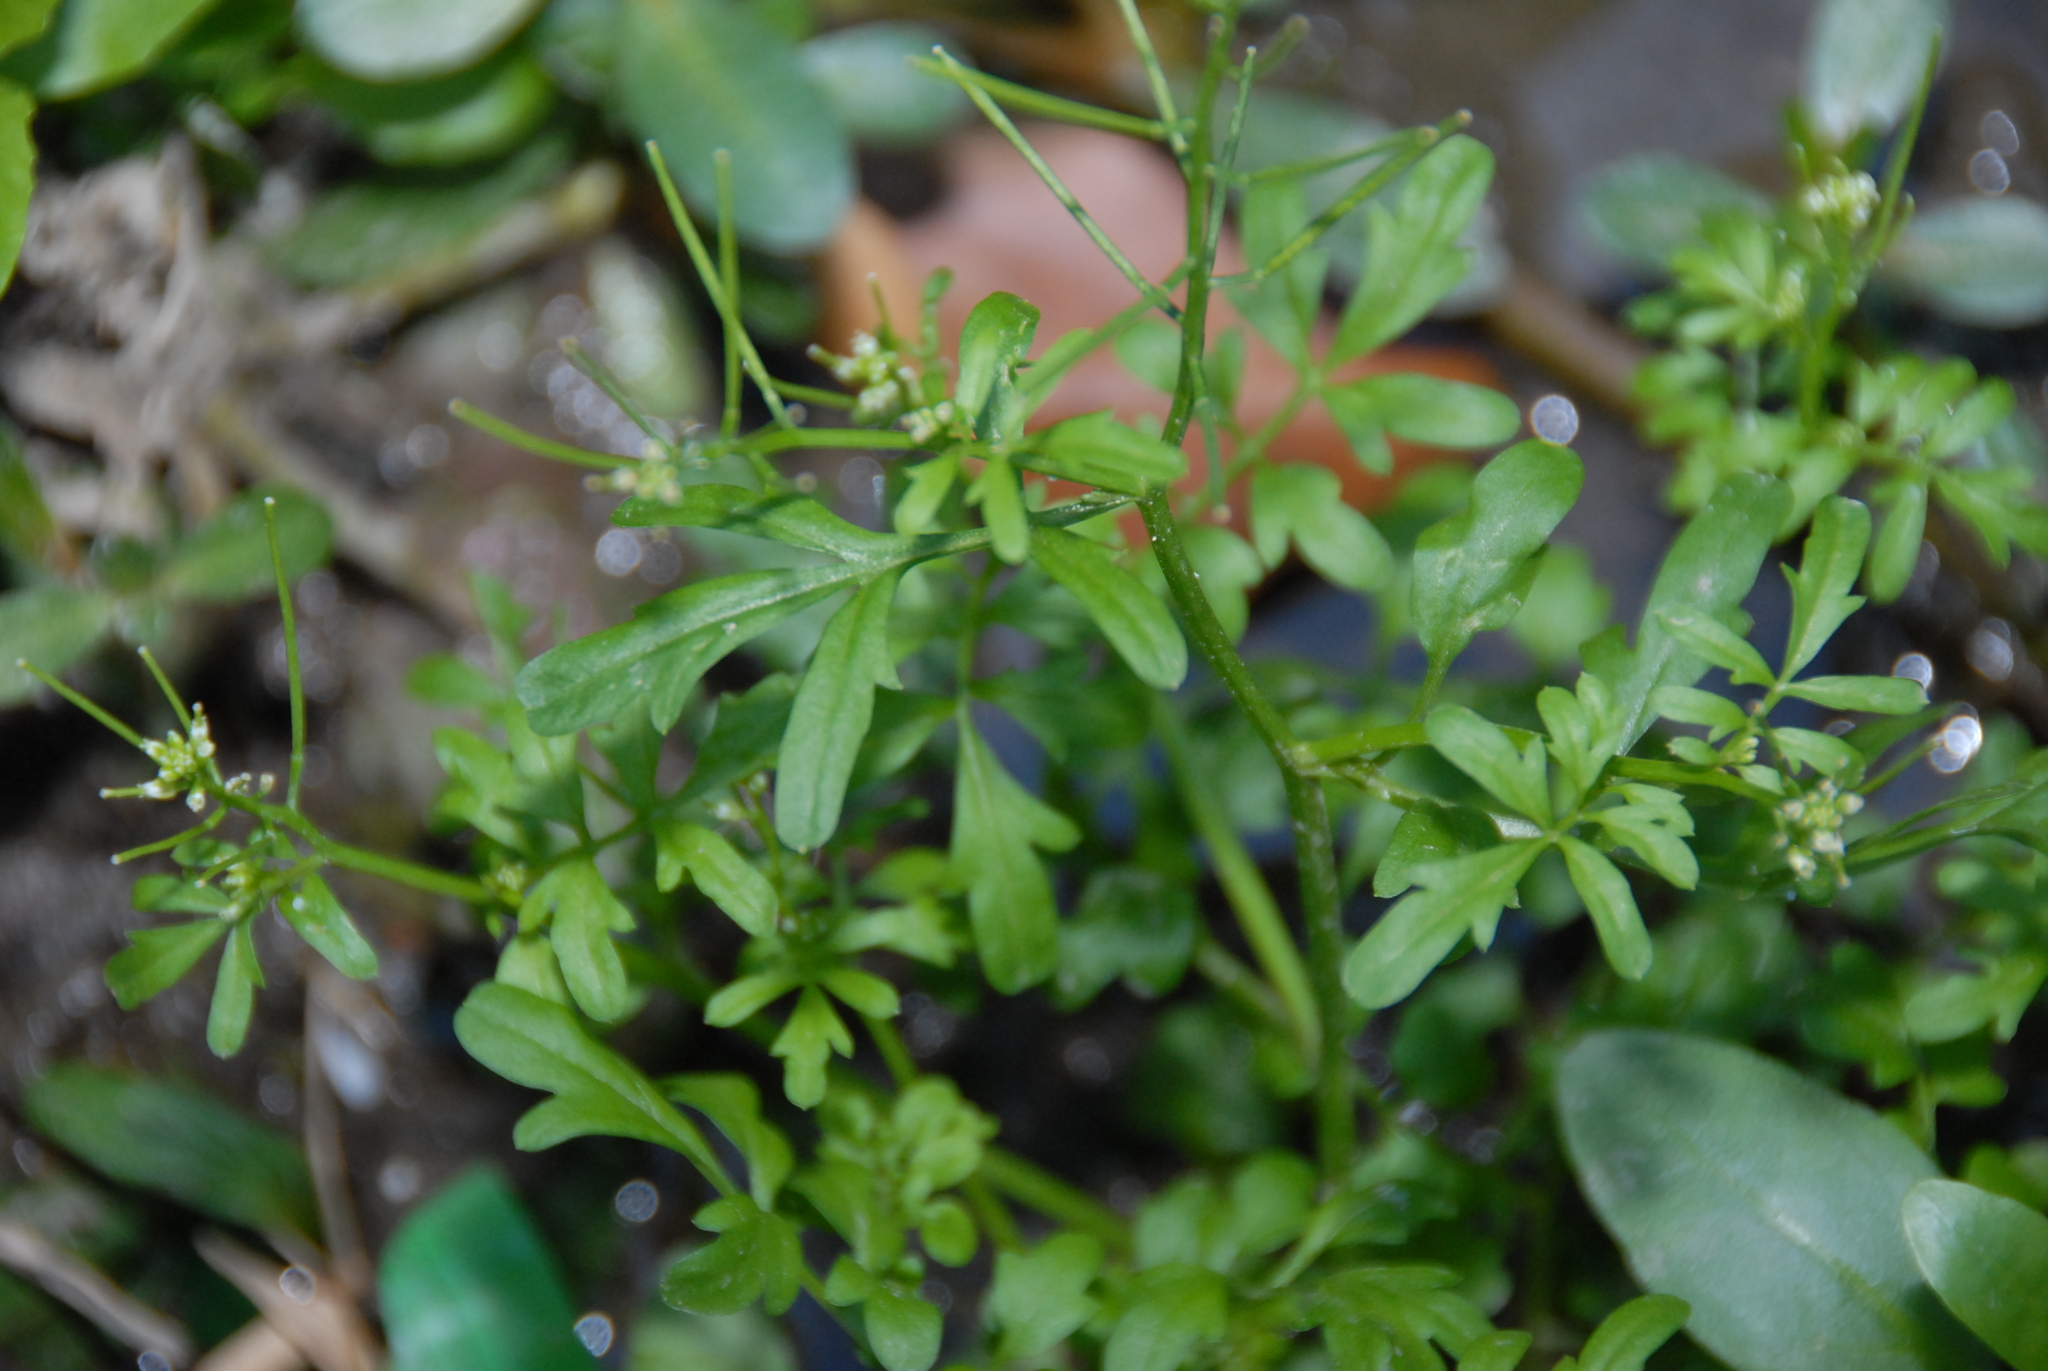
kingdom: Plantae
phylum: Tracheophyta
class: Magnoliopsida
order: Brassicales
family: Brassicaceae
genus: Cardamine
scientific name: Cardamine flexuosa
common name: Woodland bittercress
